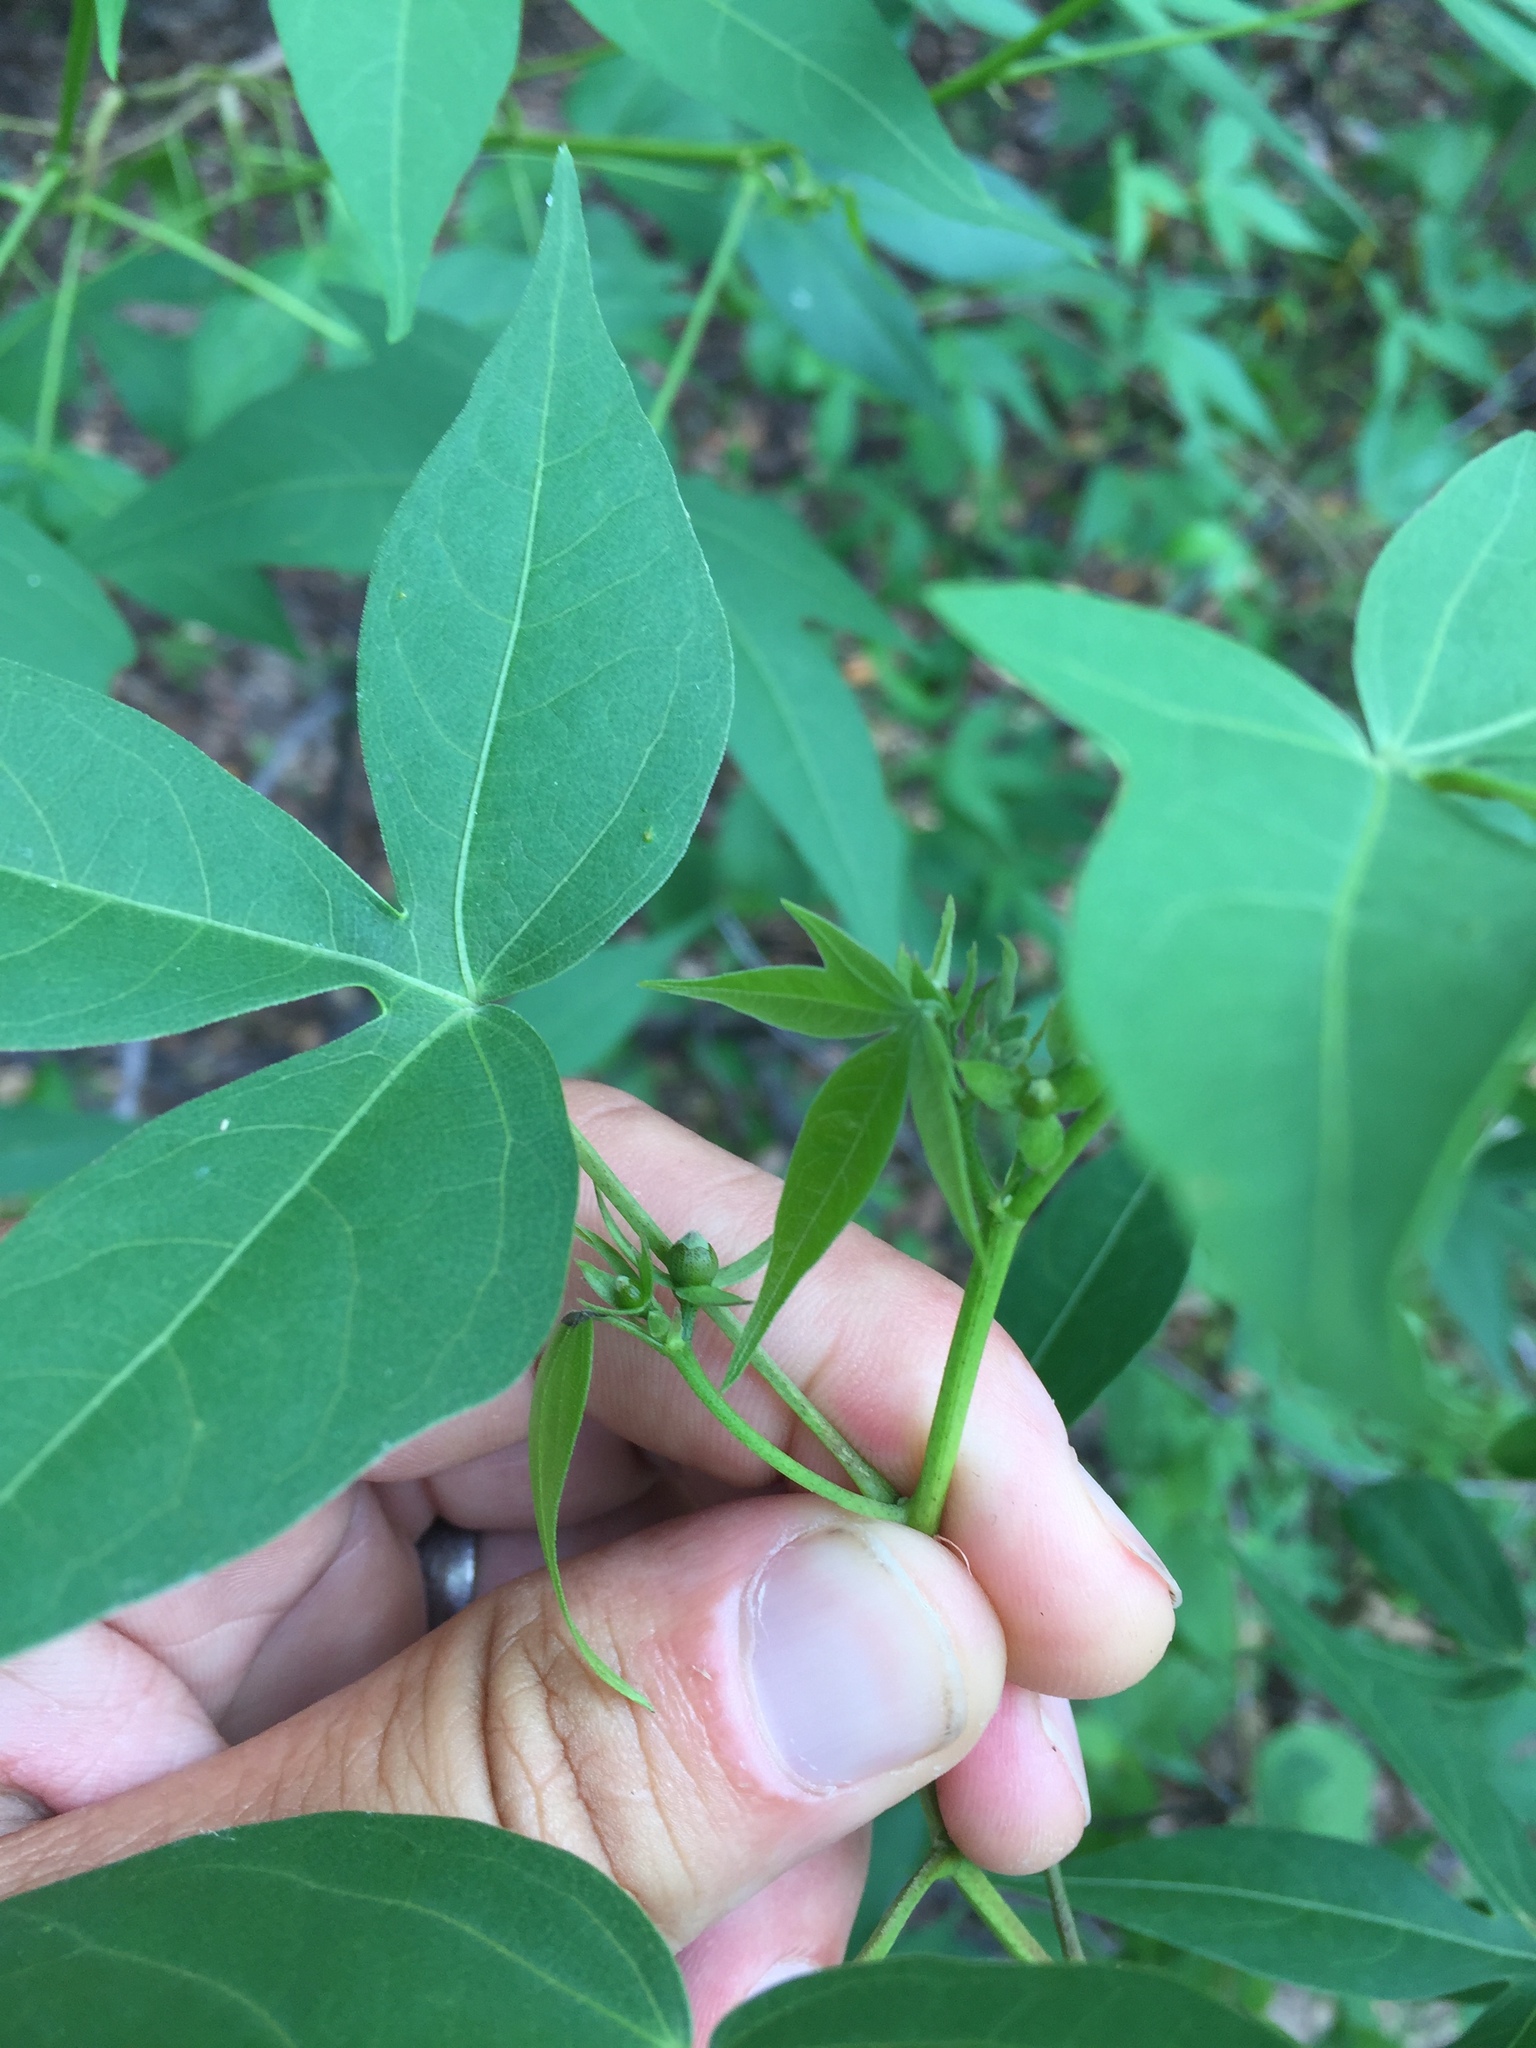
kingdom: Plantae
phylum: Tracheophyta
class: Magnoliopsida
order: Malvales
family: Malvaceae
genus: Gossypium
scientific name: Gossypium thurberi
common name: Desert cotton
